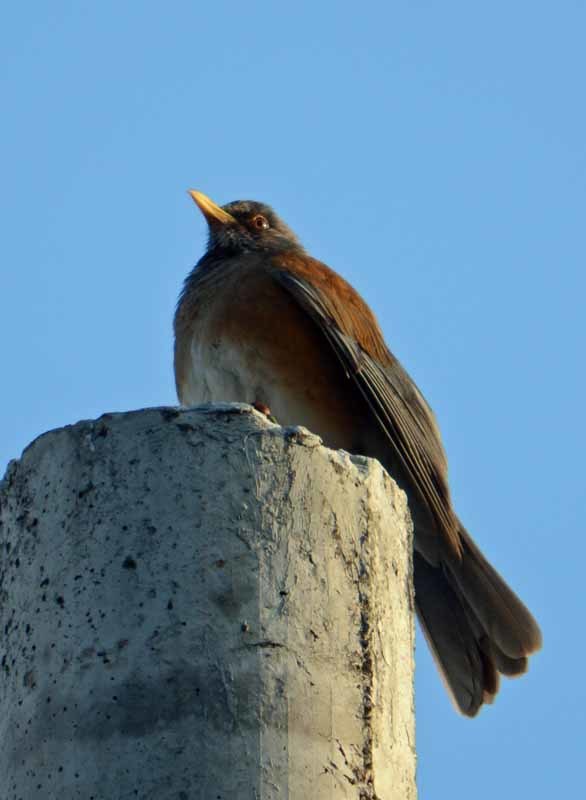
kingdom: Animalia
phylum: Chordata
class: Aves
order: Passeriformes
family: Turdidae
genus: Turdus
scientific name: Turdus rufopalliatus
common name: Rufous-backed robin
